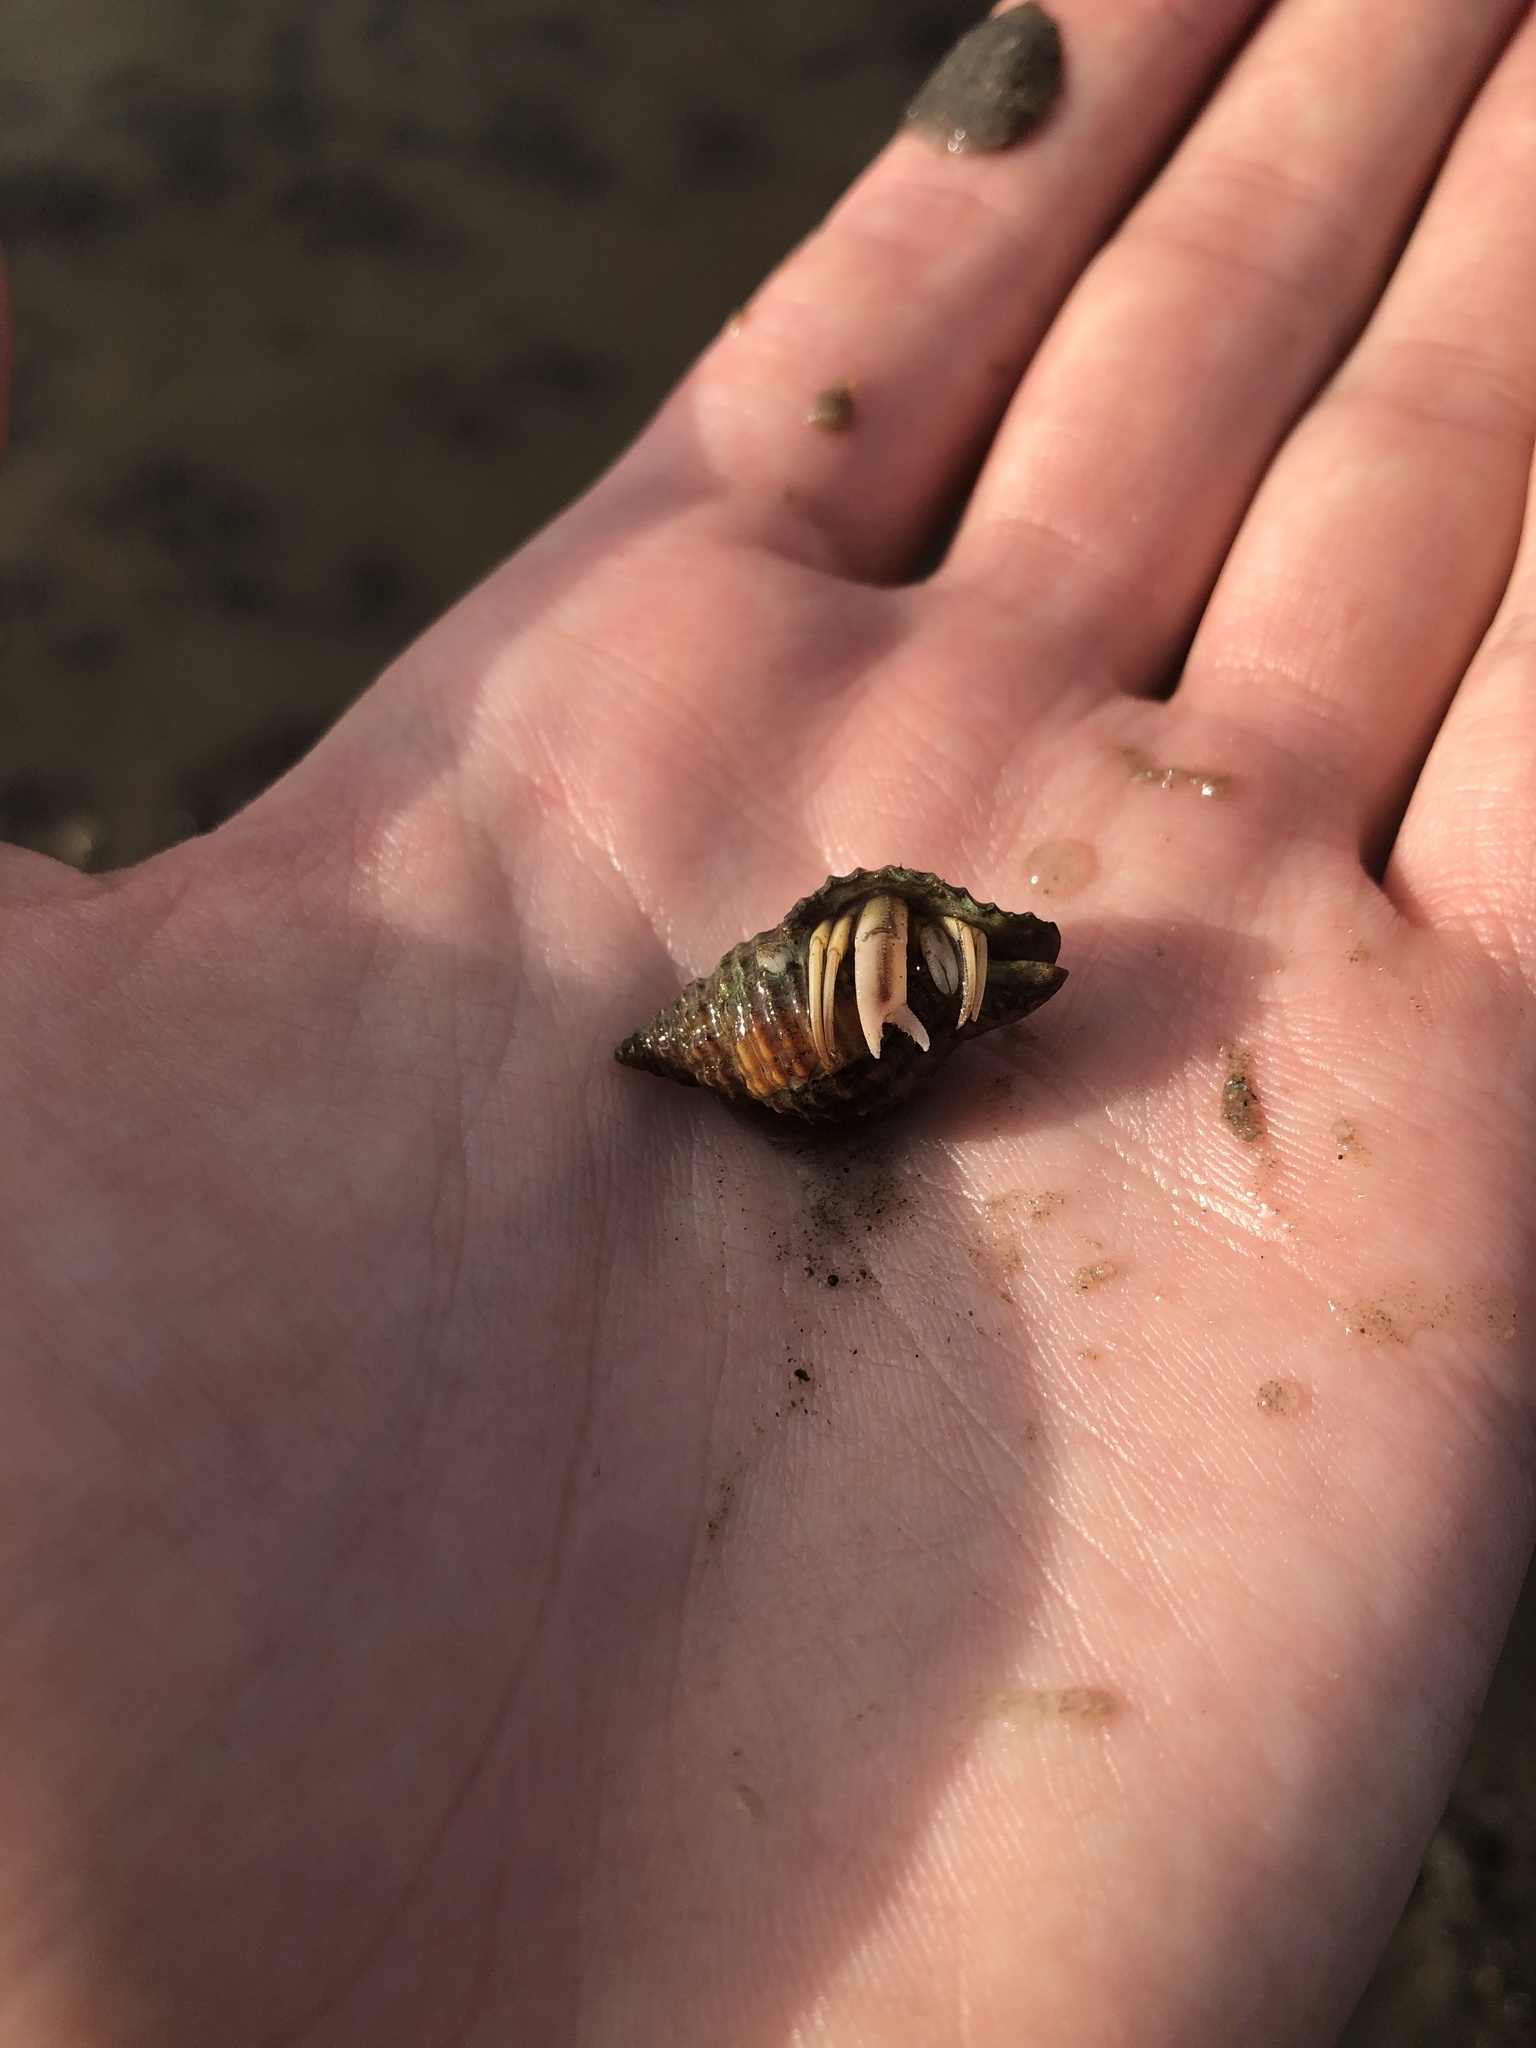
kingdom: Animalia
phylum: Arthropoda
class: Malacostraca
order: Decapoda
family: Paguridae
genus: Pagurus
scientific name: Pagurus longicarpus
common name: Long-armed hermit crab
